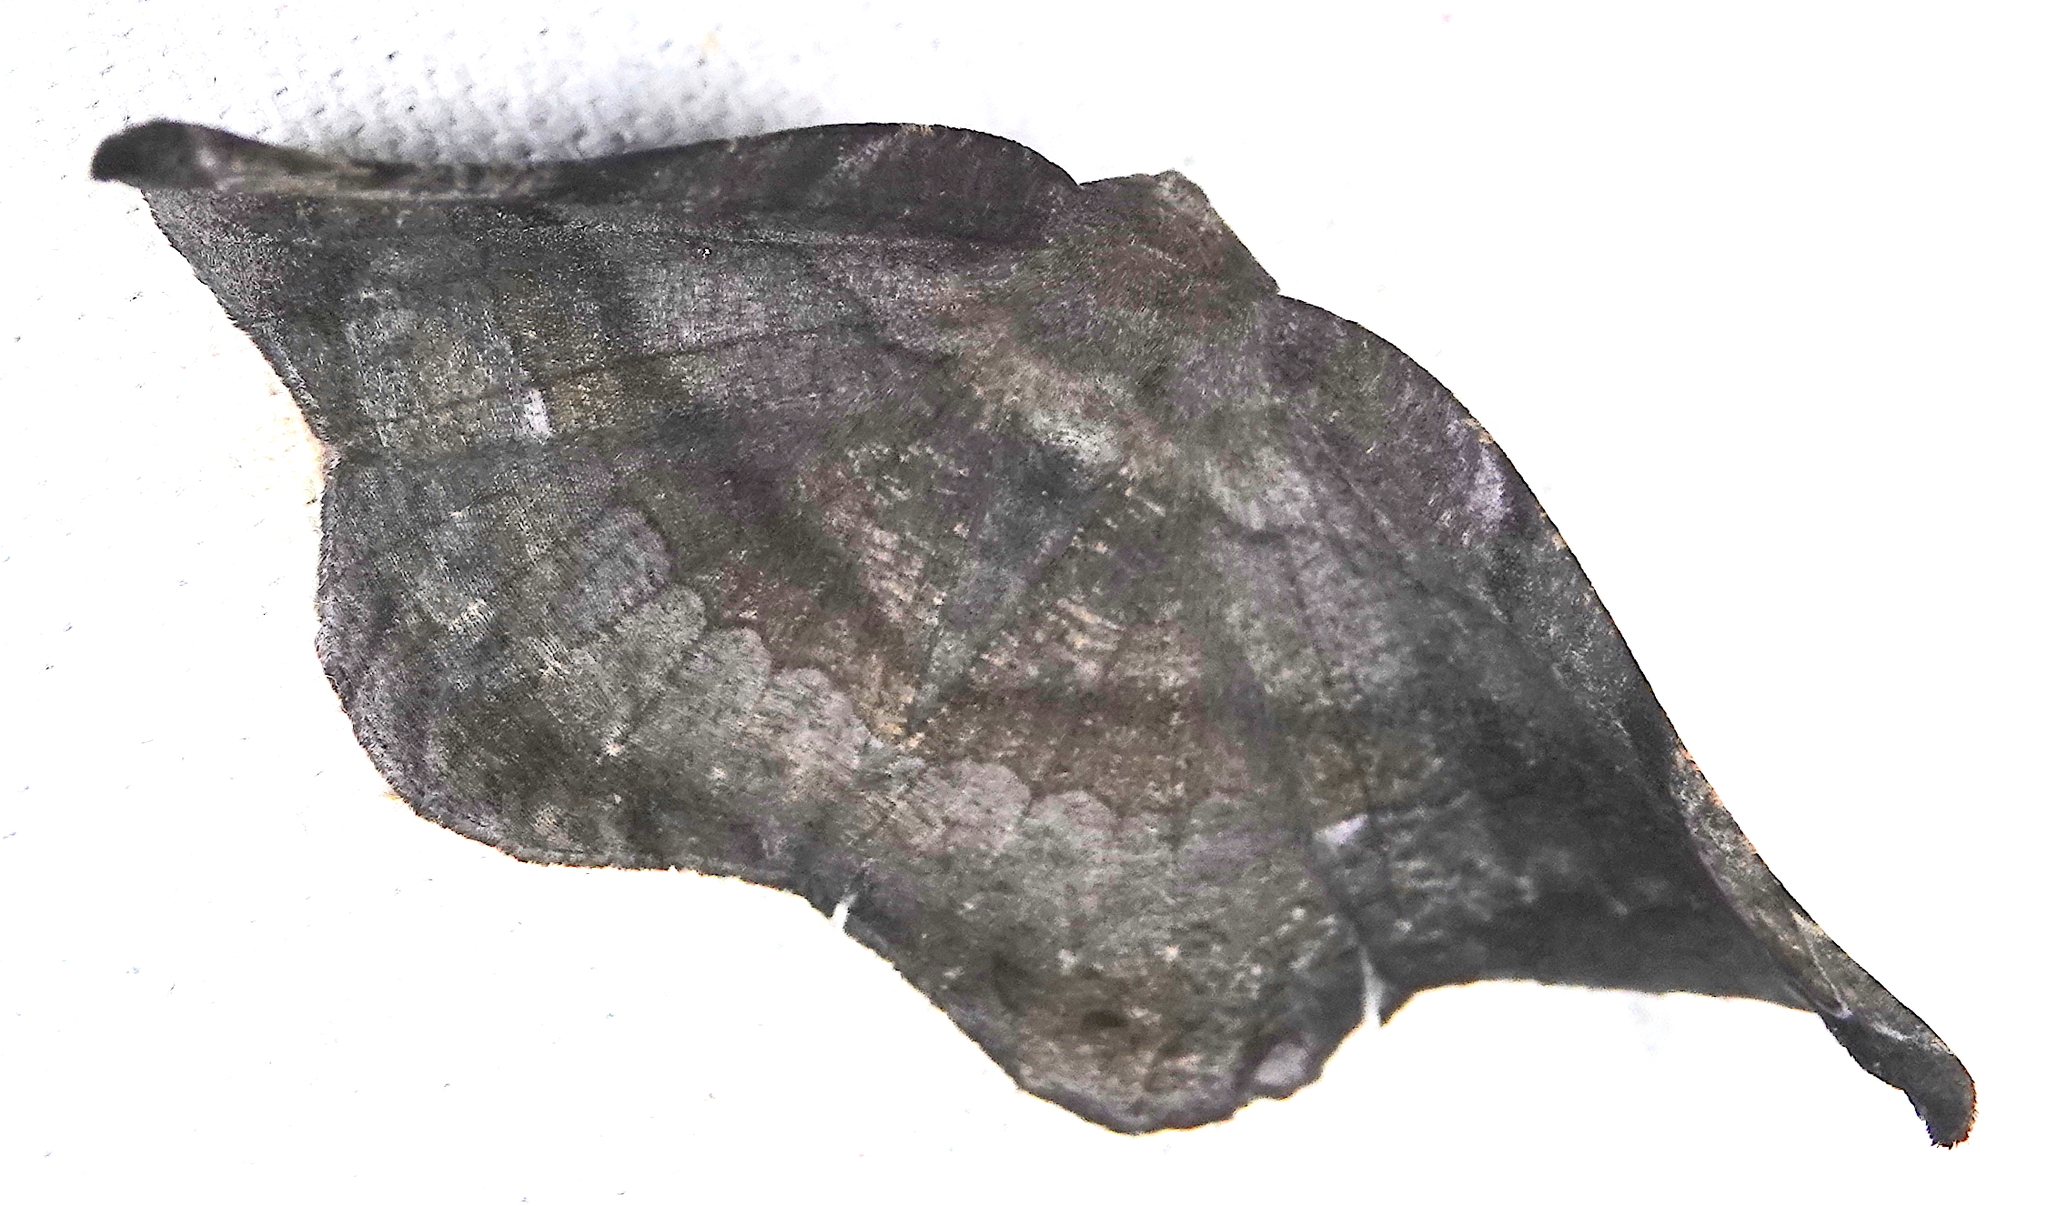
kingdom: Animalia
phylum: Arthropoda
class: Insecta
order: Lepidoptera
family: Geometridae
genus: Hygrochroma
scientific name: Hygrochroma olivinaria
